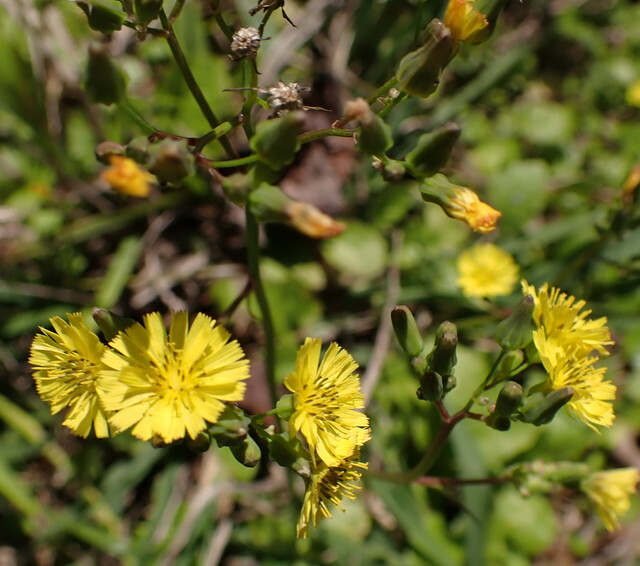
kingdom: Plantae
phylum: Tracheophyta
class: Magnoliopsida
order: Asterales
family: Asteraceae
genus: Youngia
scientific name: Youngia japonica
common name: Oriental false hawksbeard
